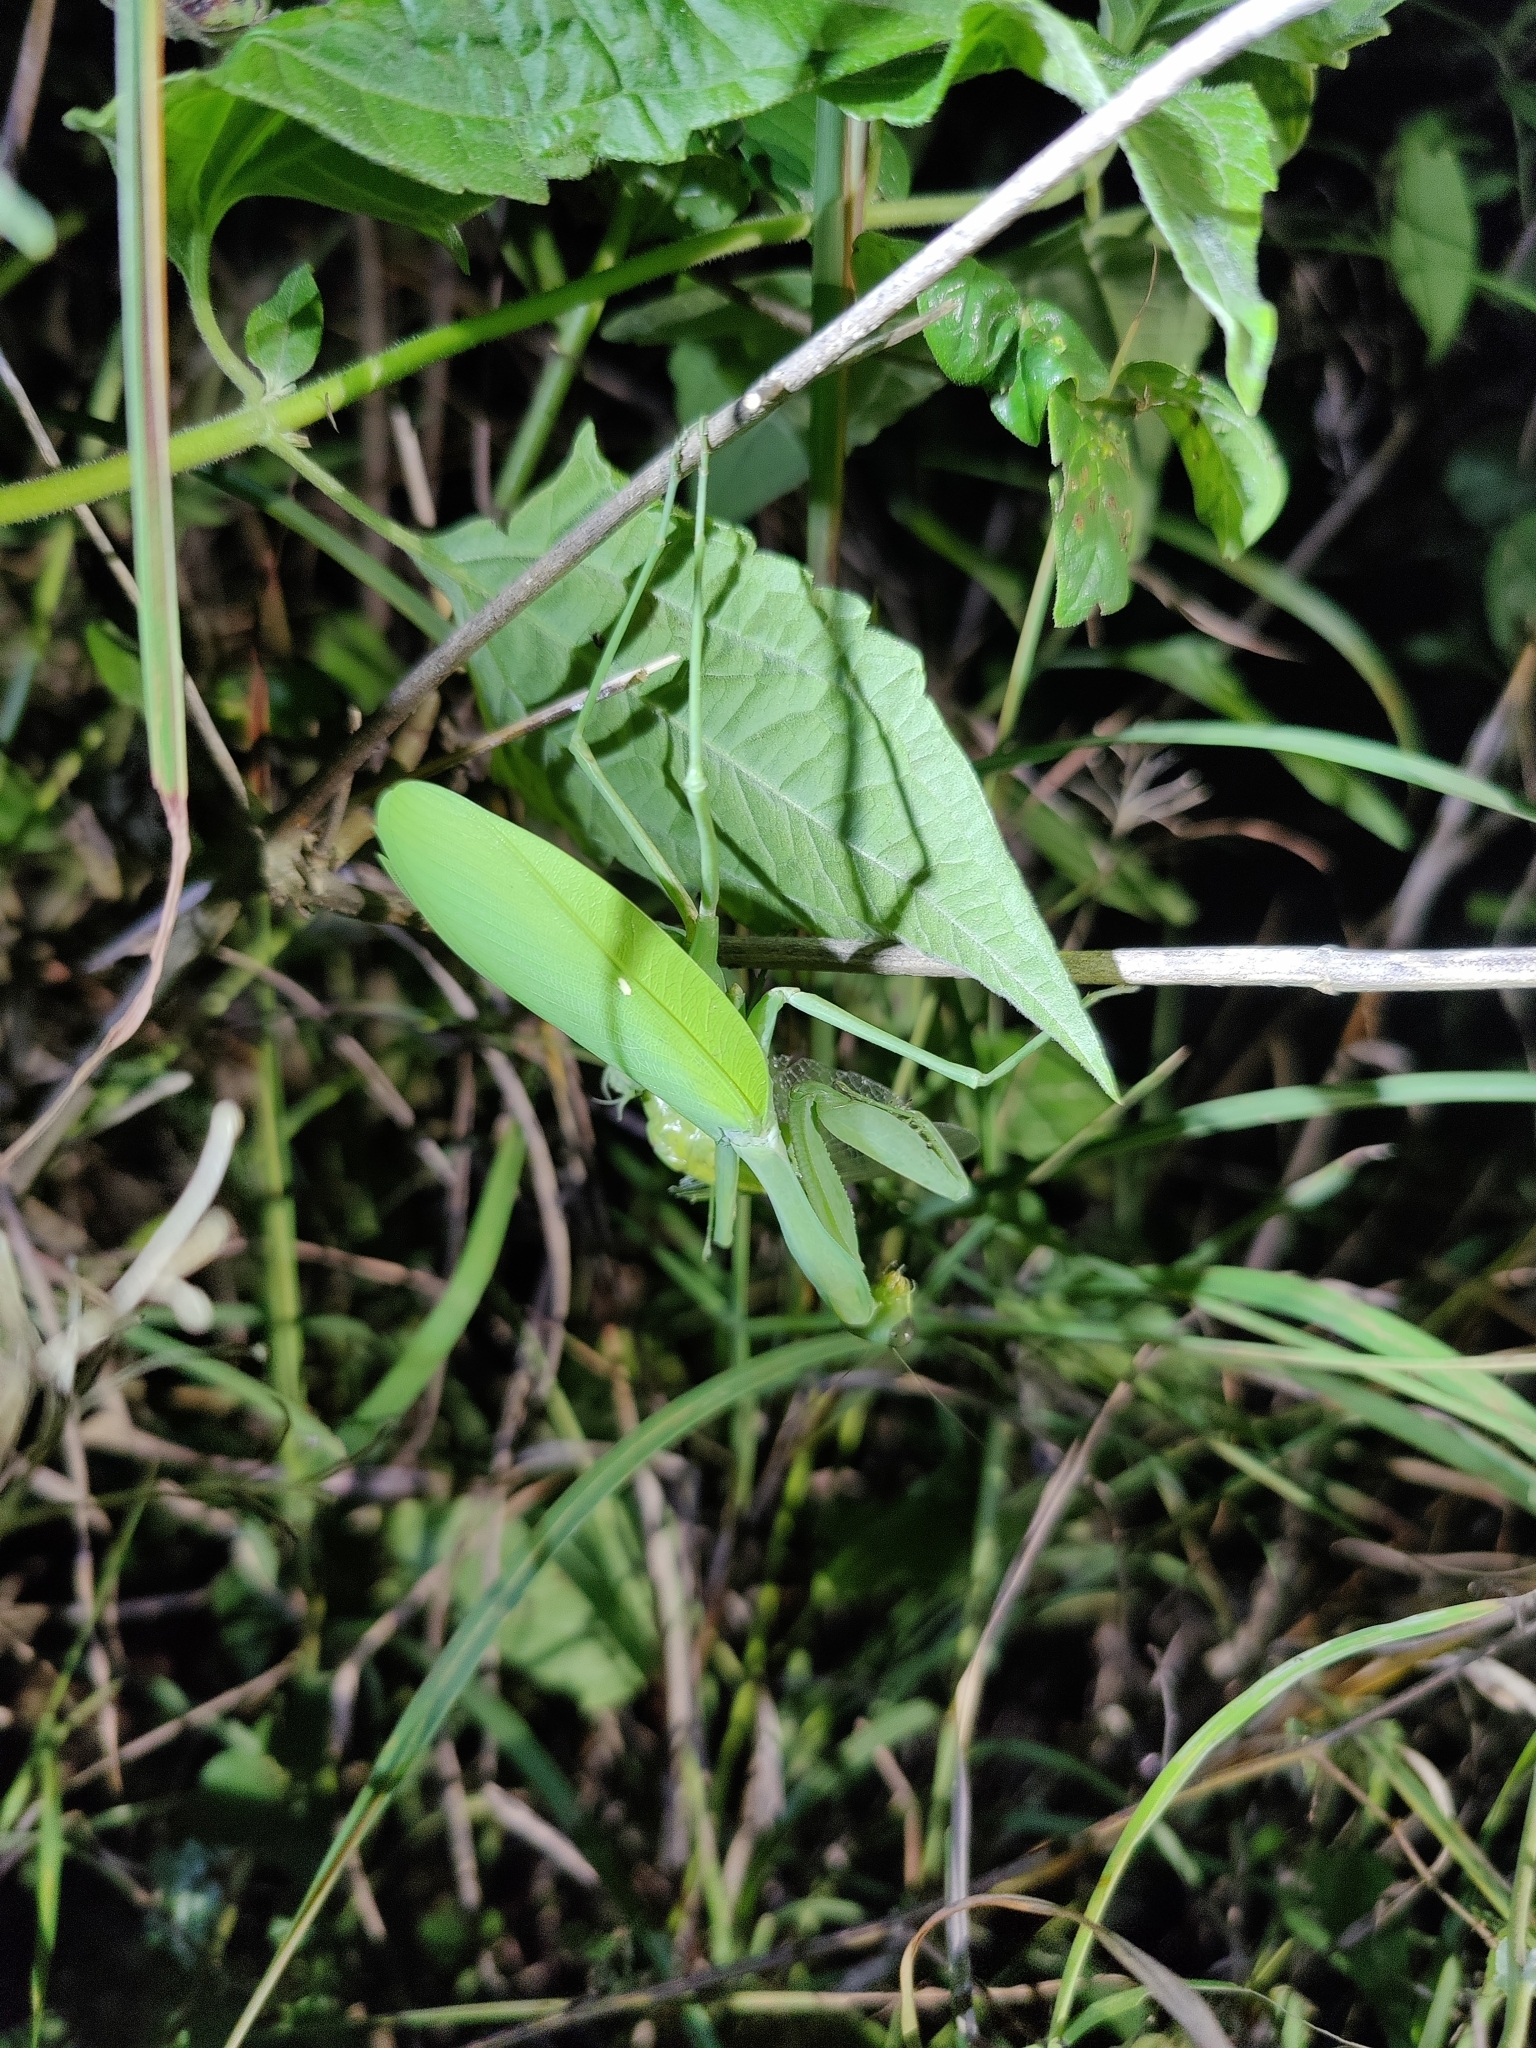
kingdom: Animalia
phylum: Arthropoda
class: Insecta
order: Mantodea
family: Mantidae
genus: Hierodula
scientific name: Hierodula membranacea
